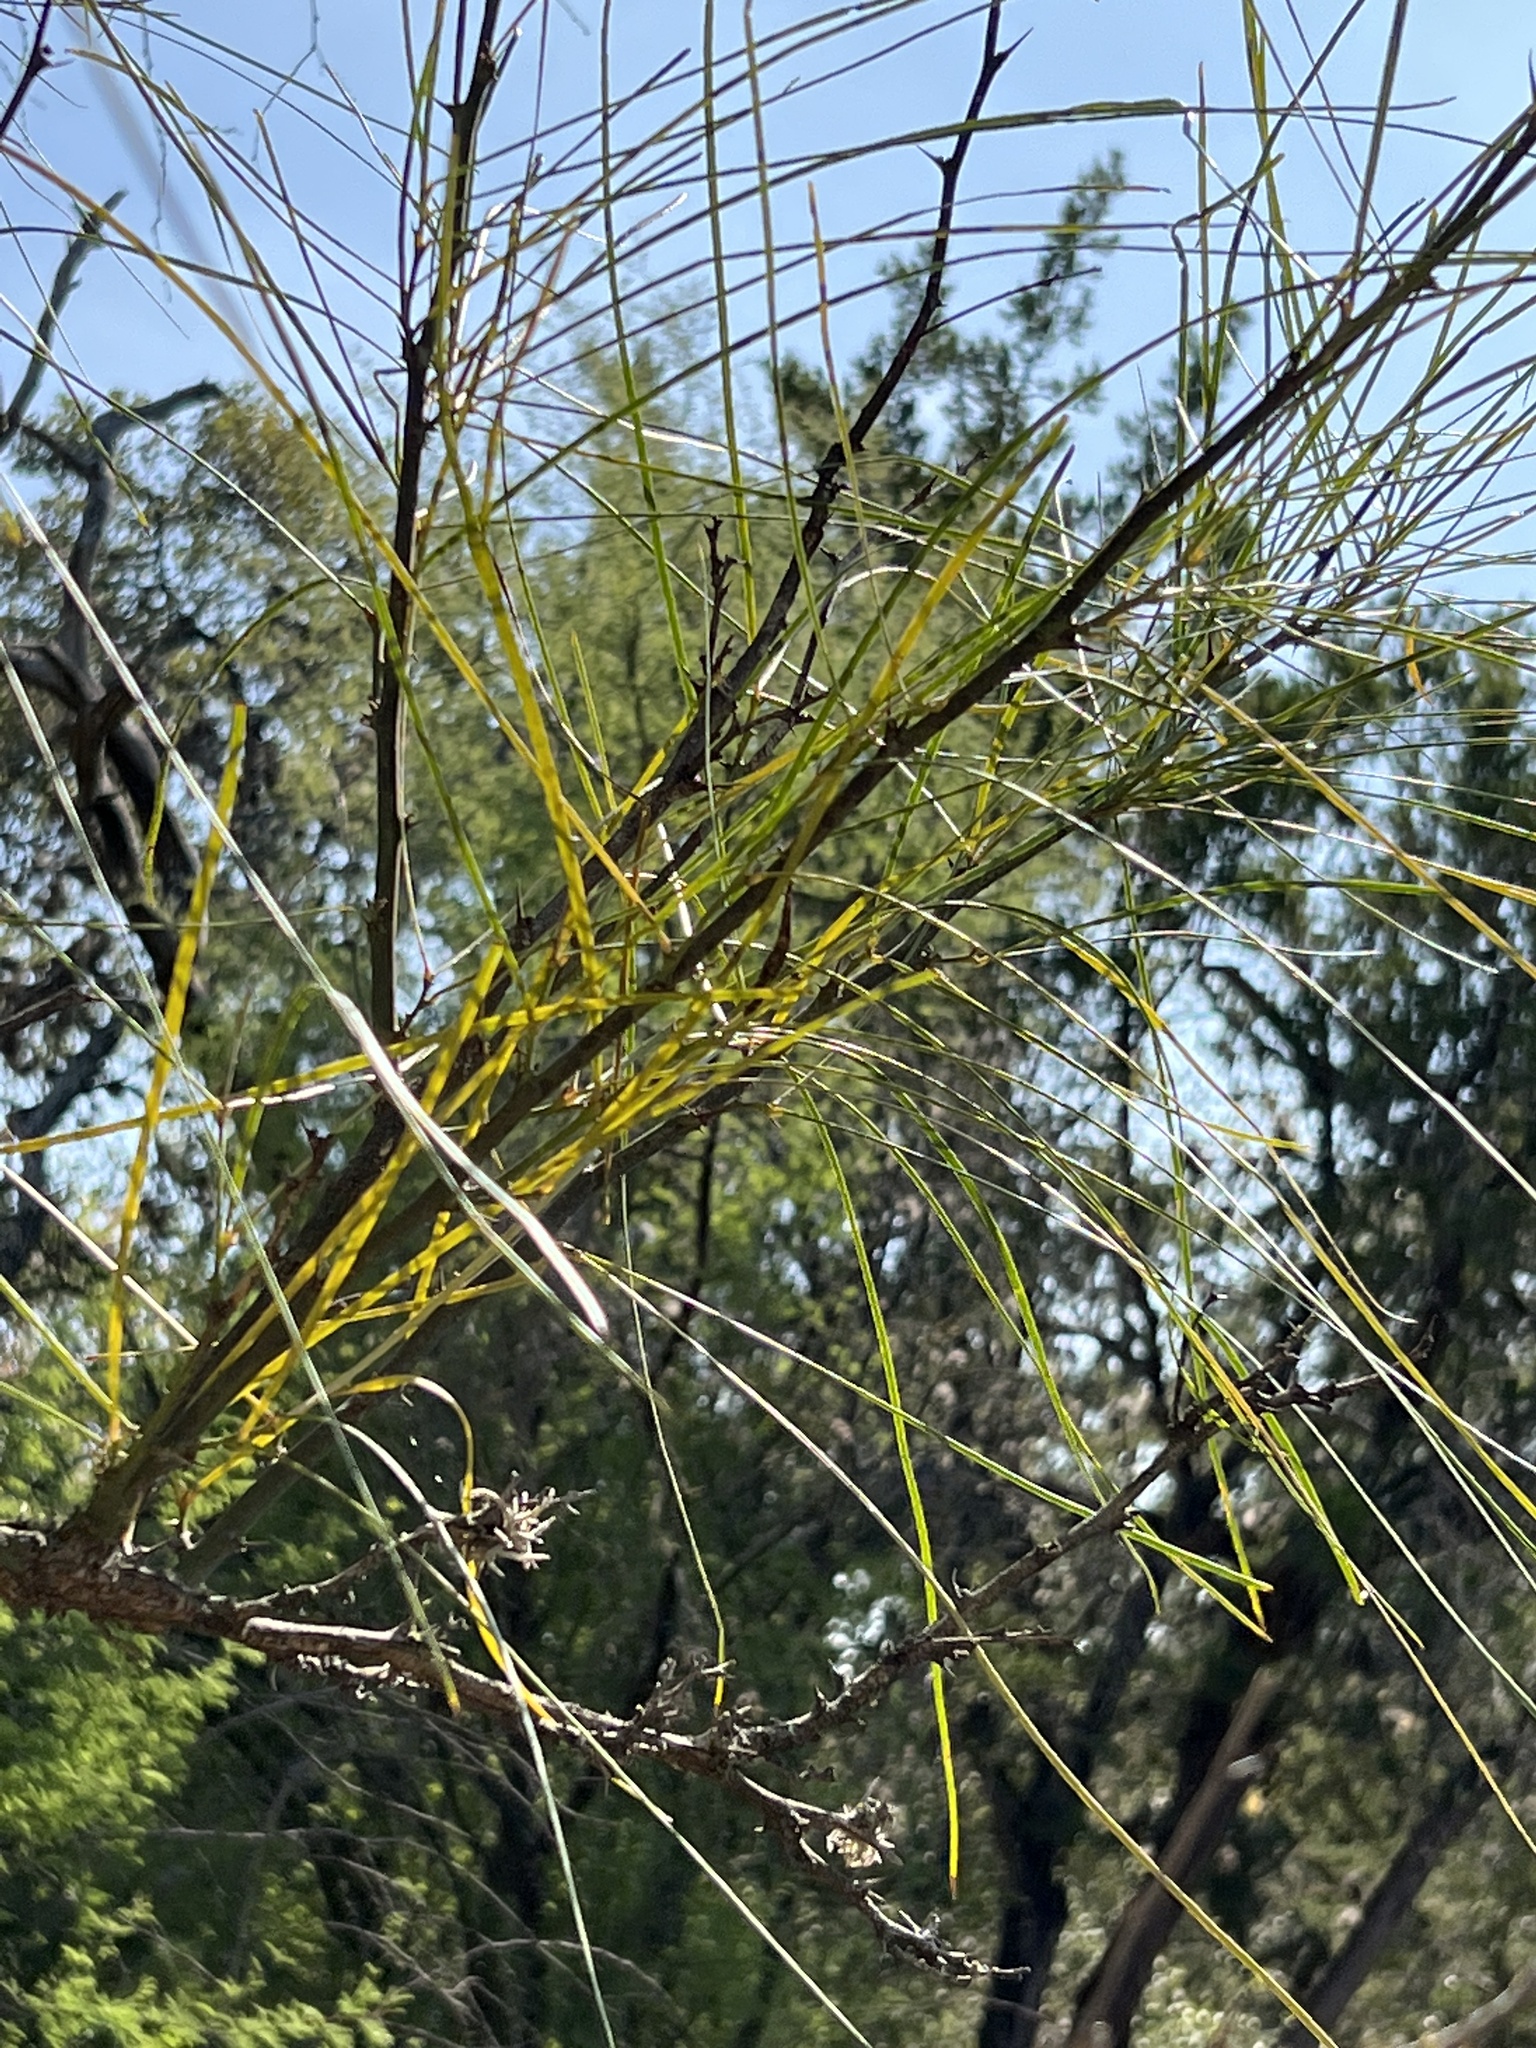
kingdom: Plantae
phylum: Tracheophyta
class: Magnoliopsida
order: Fabales
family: Fabaceae
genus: Parkinsonia
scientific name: Parkinsonia aculeata
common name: Jerusalem thorn
